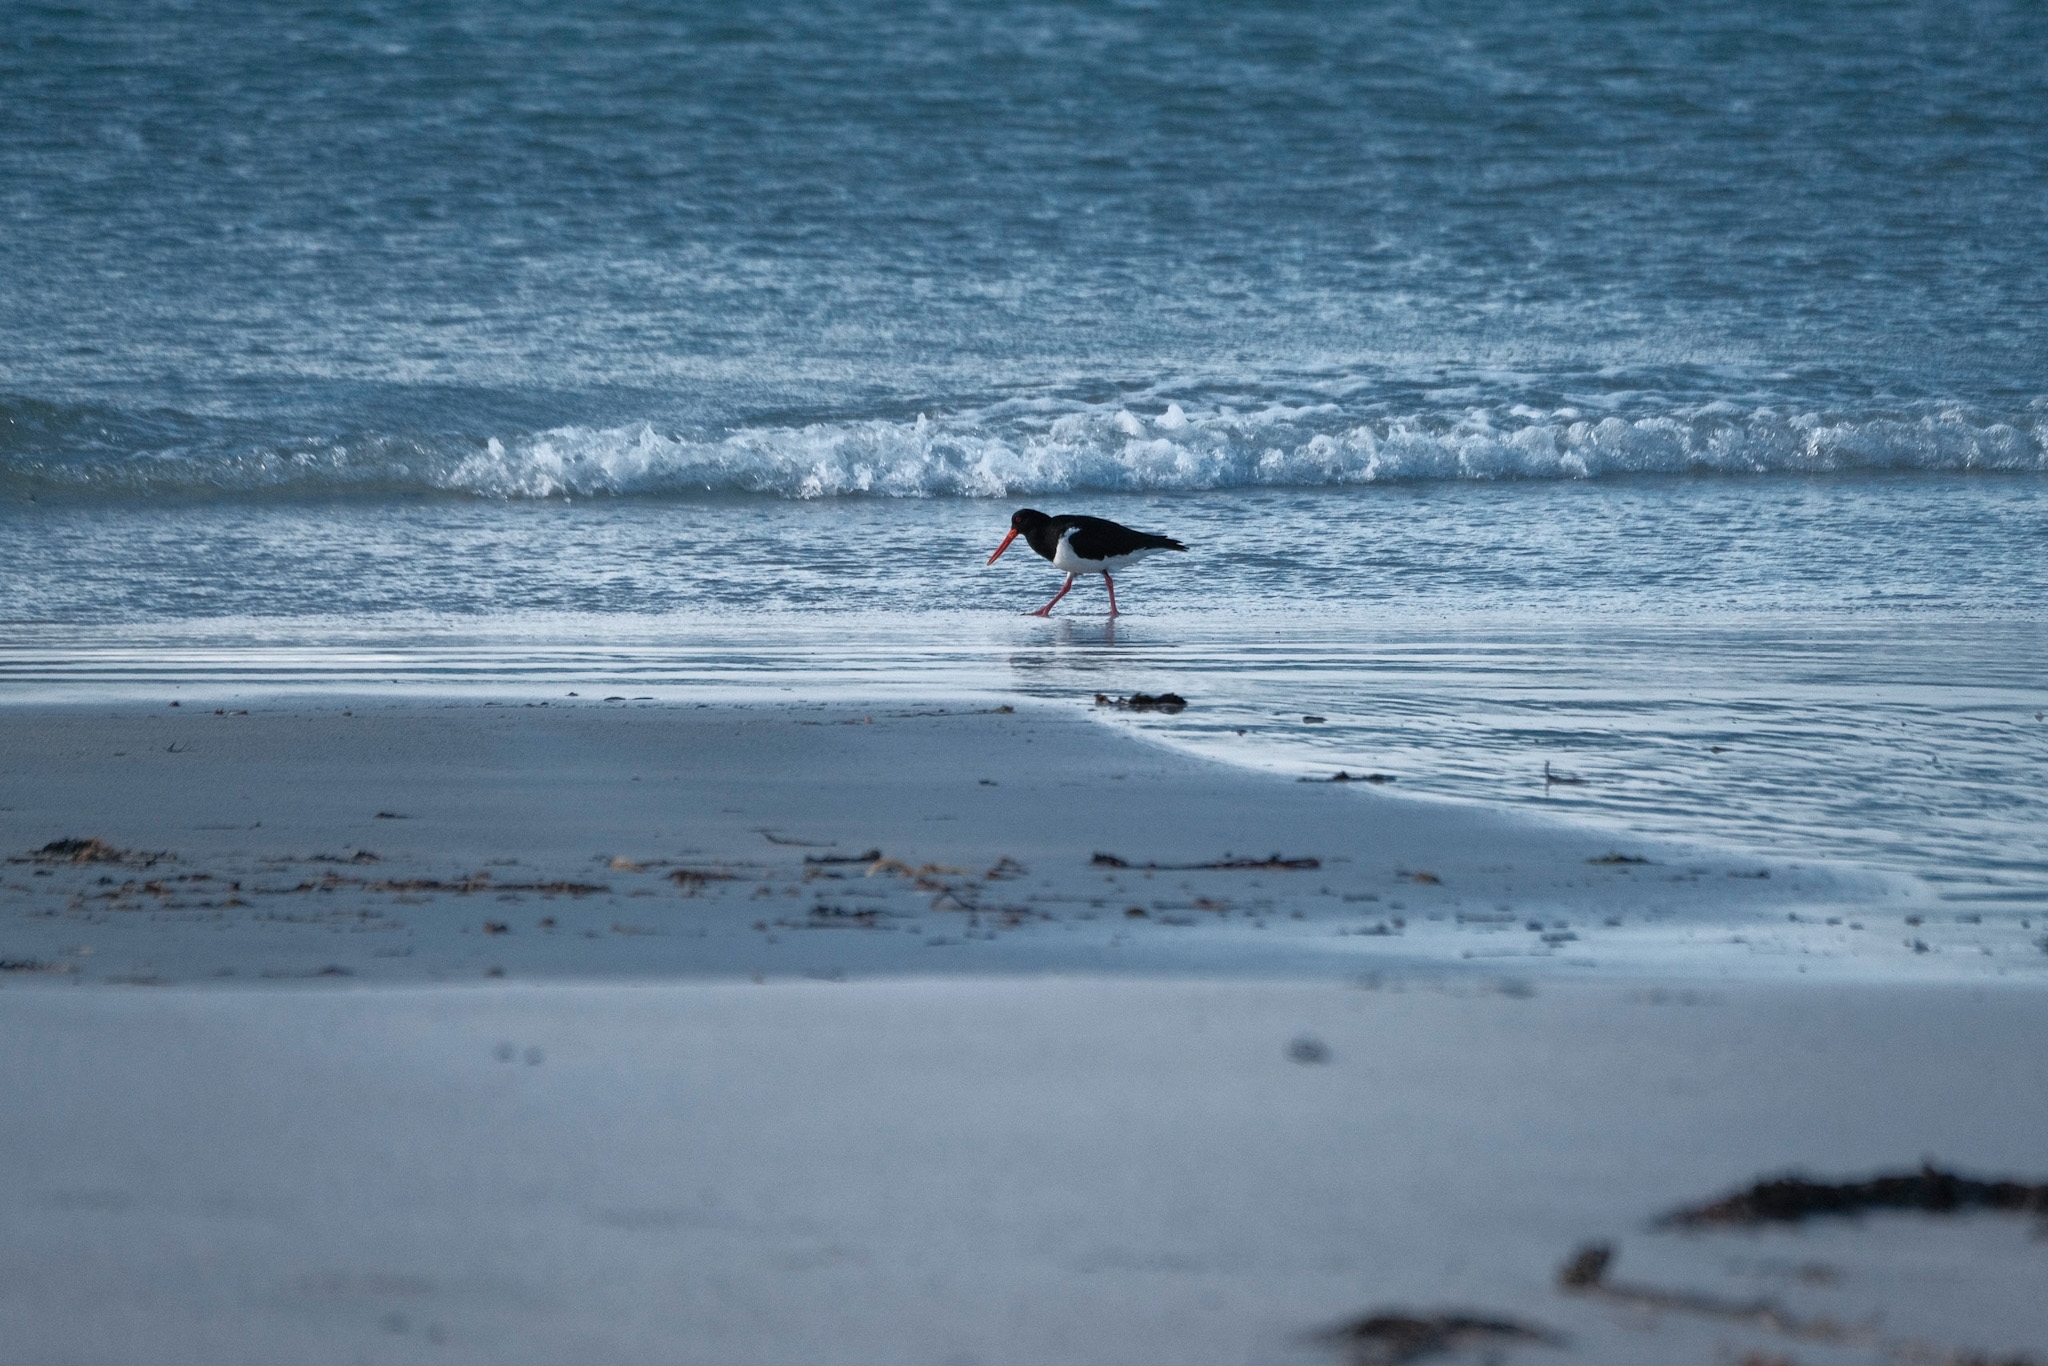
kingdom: Animalia
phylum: Chordata
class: Aves
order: Charadriiformes
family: Haematopodidae
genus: Haematopus
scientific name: Haematopus longirostris
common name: Pied oystercatcher
